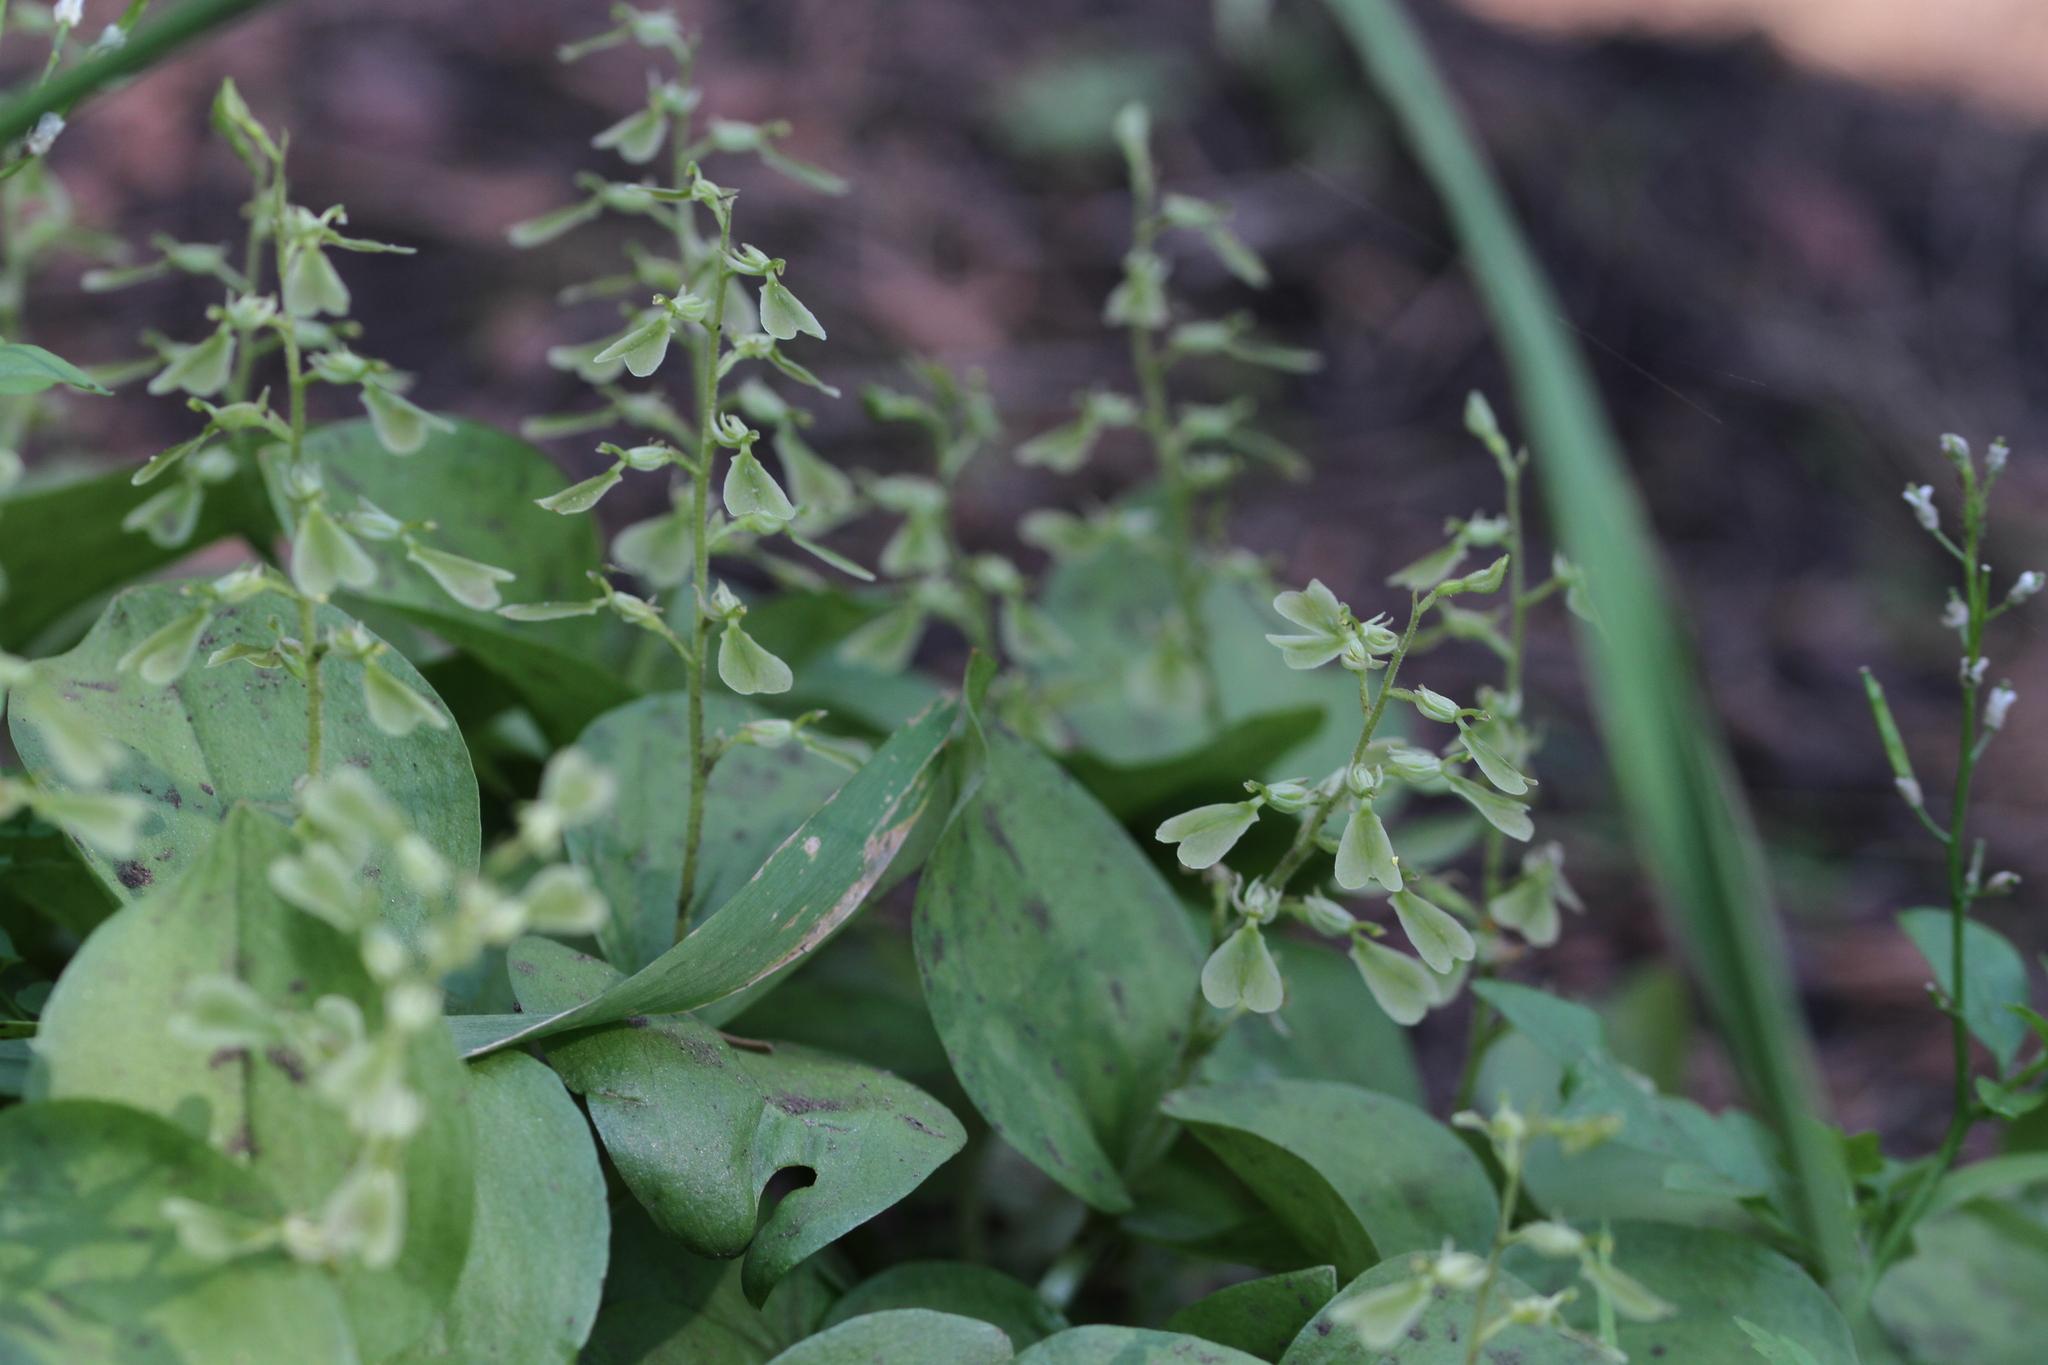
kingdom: Plantae
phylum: Tracheophyta
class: Liliopsida
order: Asparagales
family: Orchidaceae
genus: Neottia
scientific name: Neottia convallarioides
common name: Broadleaf twayblade
